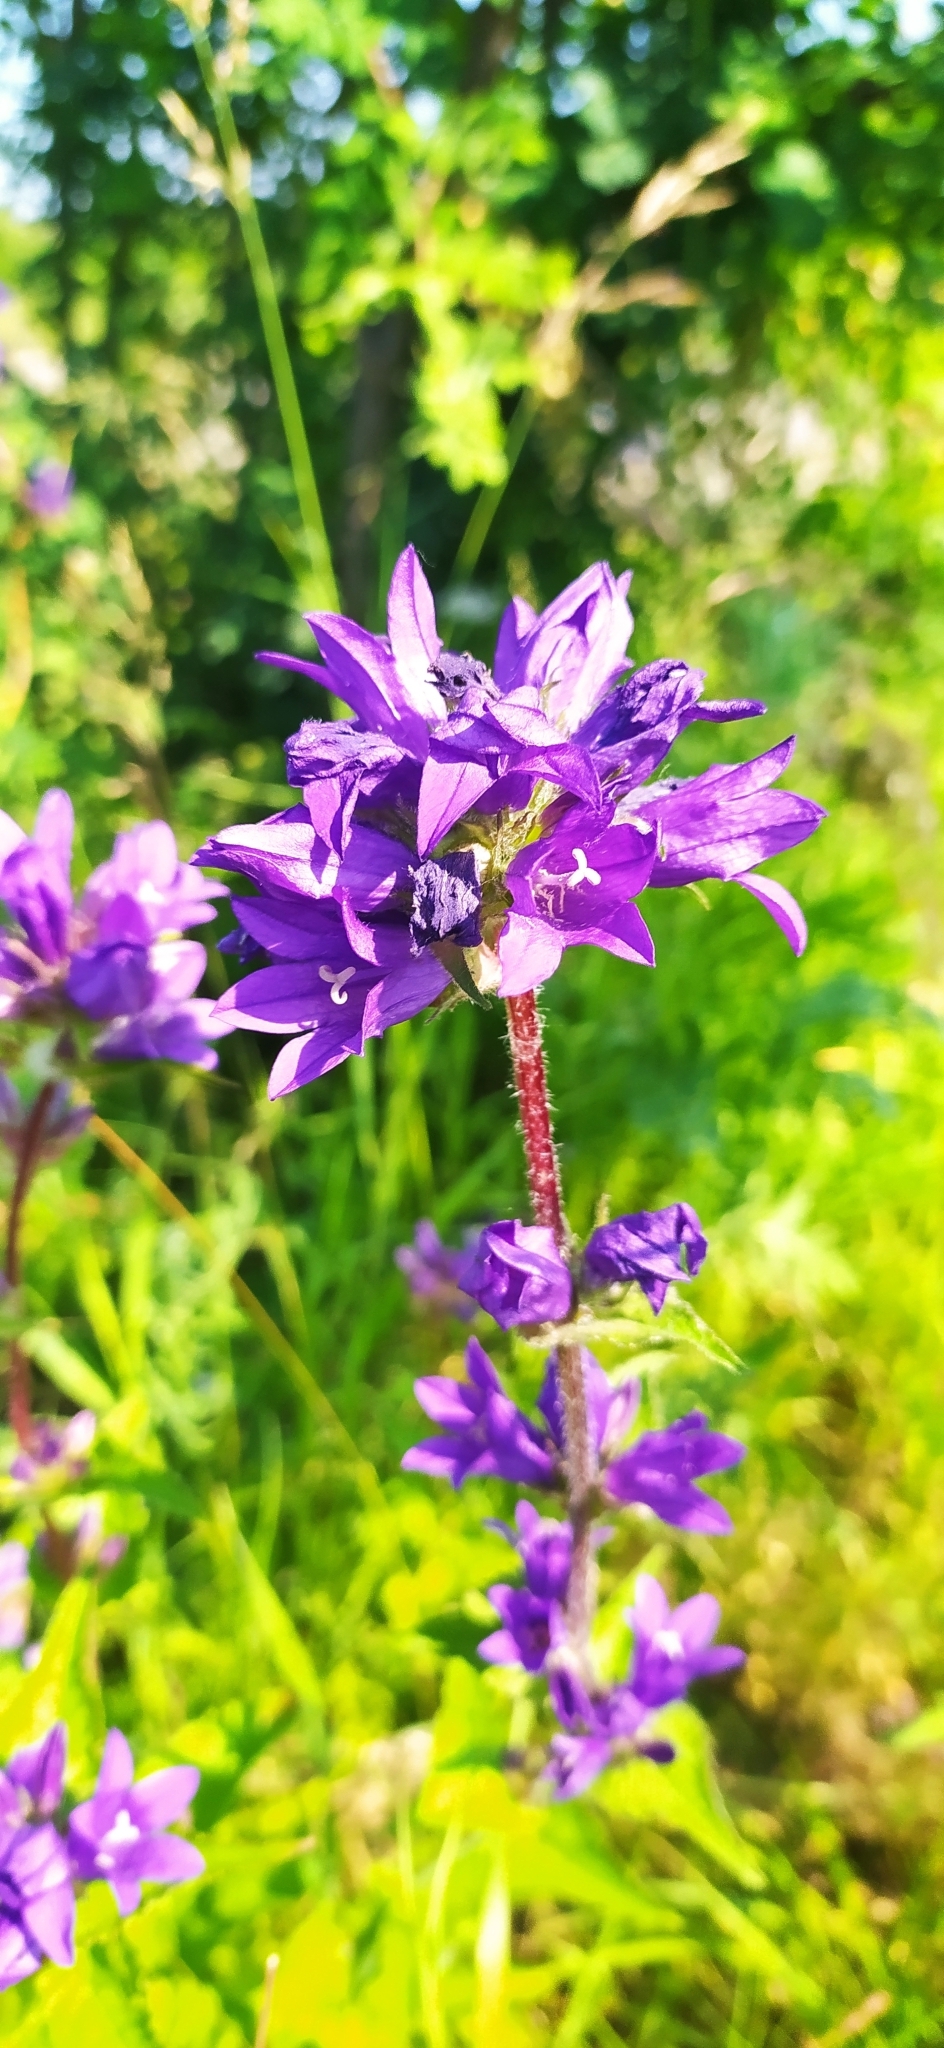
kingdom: Plantae
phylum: Tracheophyta
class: Magnoliopsida
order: Asterales
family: Campanulaceae
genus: Campanula
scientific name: Campanula glomerata
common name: Clustered bellflower
